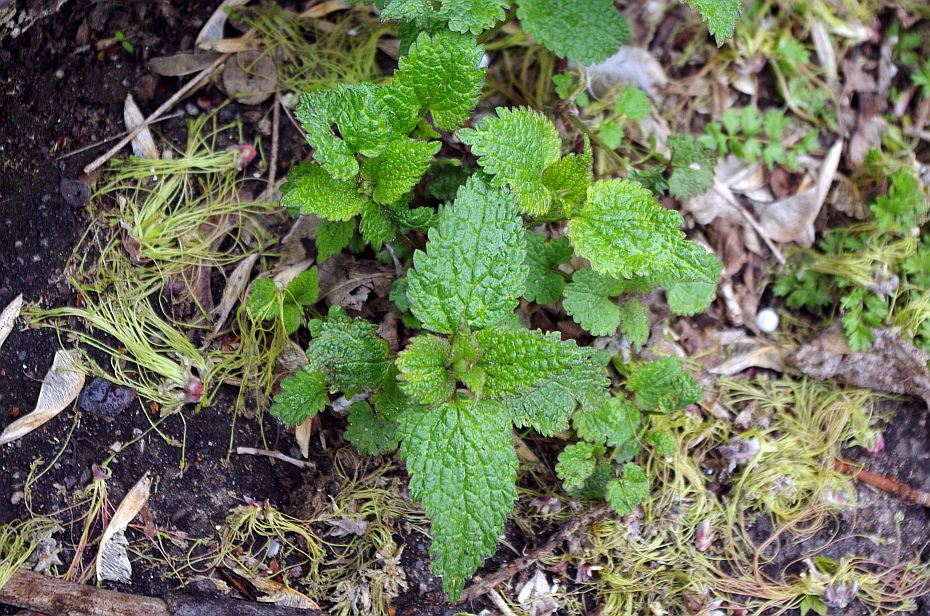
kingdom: Plantae
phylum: Tracheophyta
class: Magnoliopsida
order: Lamiales
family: Lamiaceae
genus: Lamium
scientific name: Lamium album
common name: White dead-nettle
